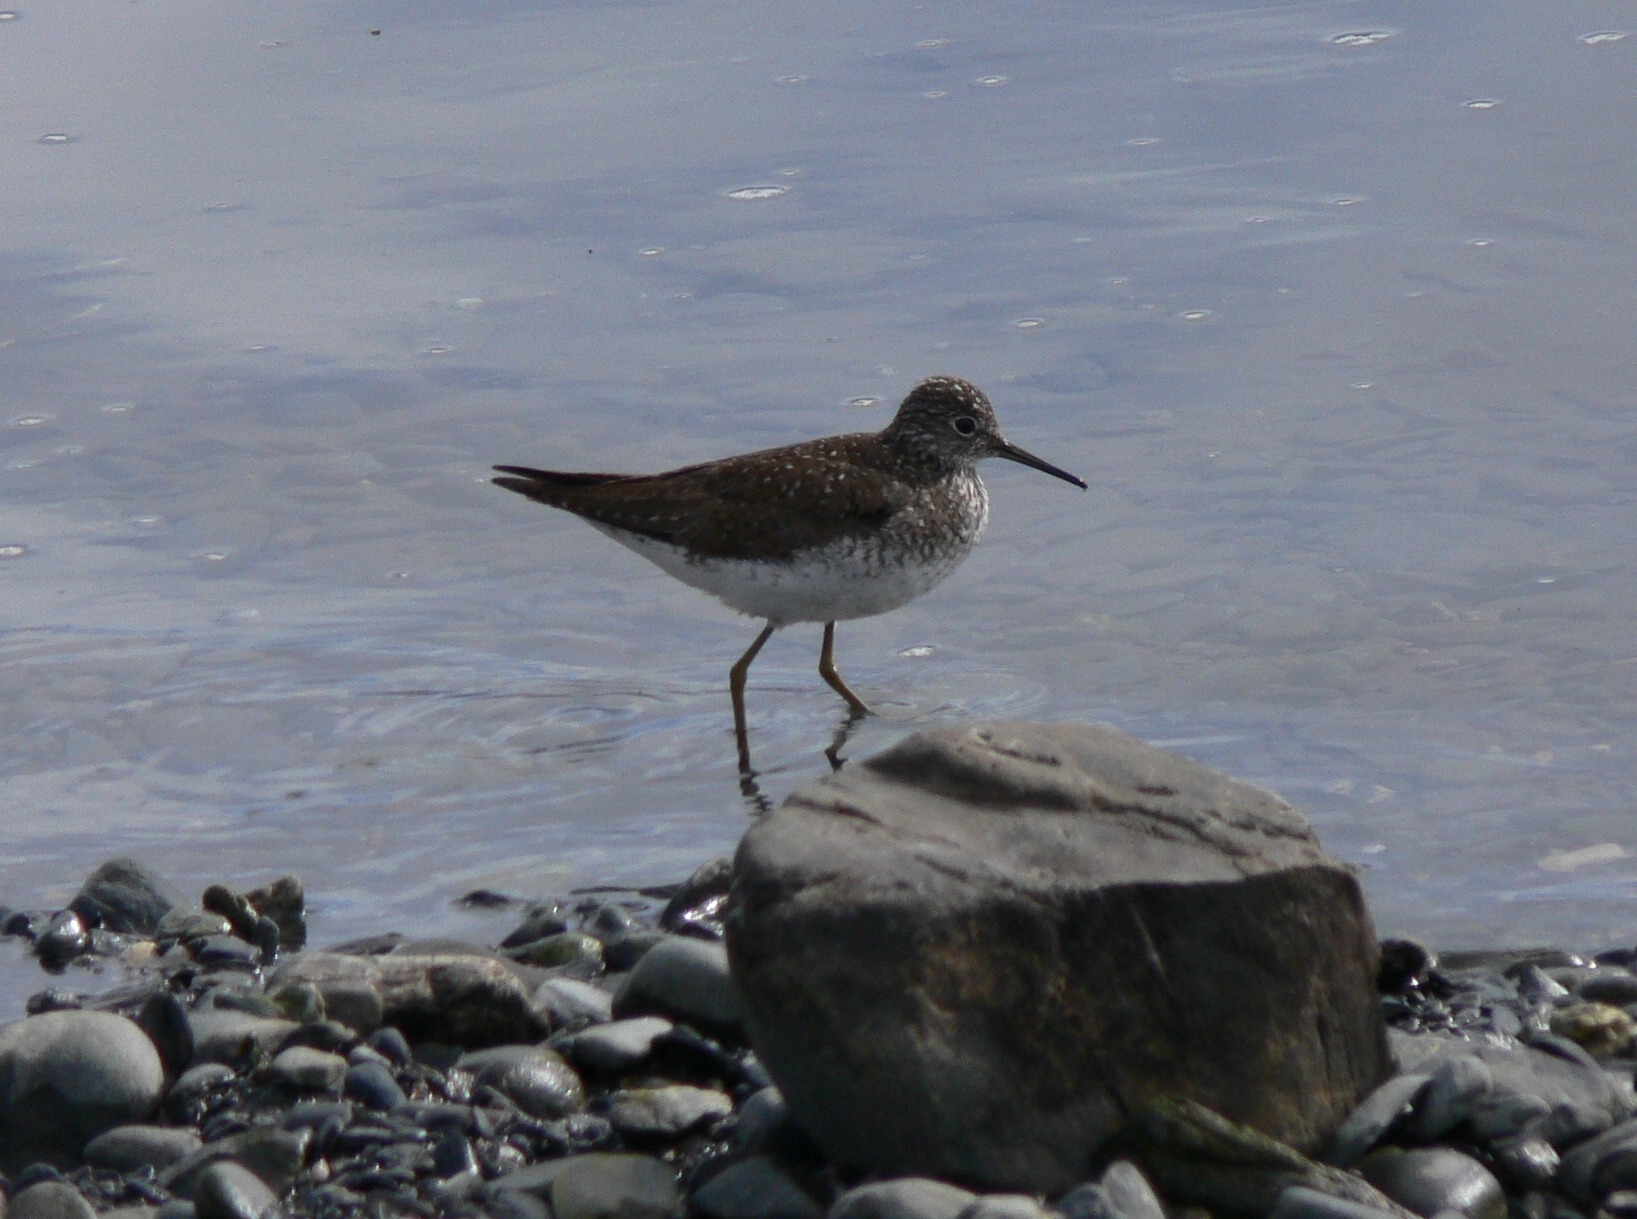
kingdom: Animalia
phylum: Chordata
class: Aves
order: Charadriiformes
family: Scolopacidae
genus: Tringa
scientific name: Tringa solitaria
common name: Solitary sandpiper
